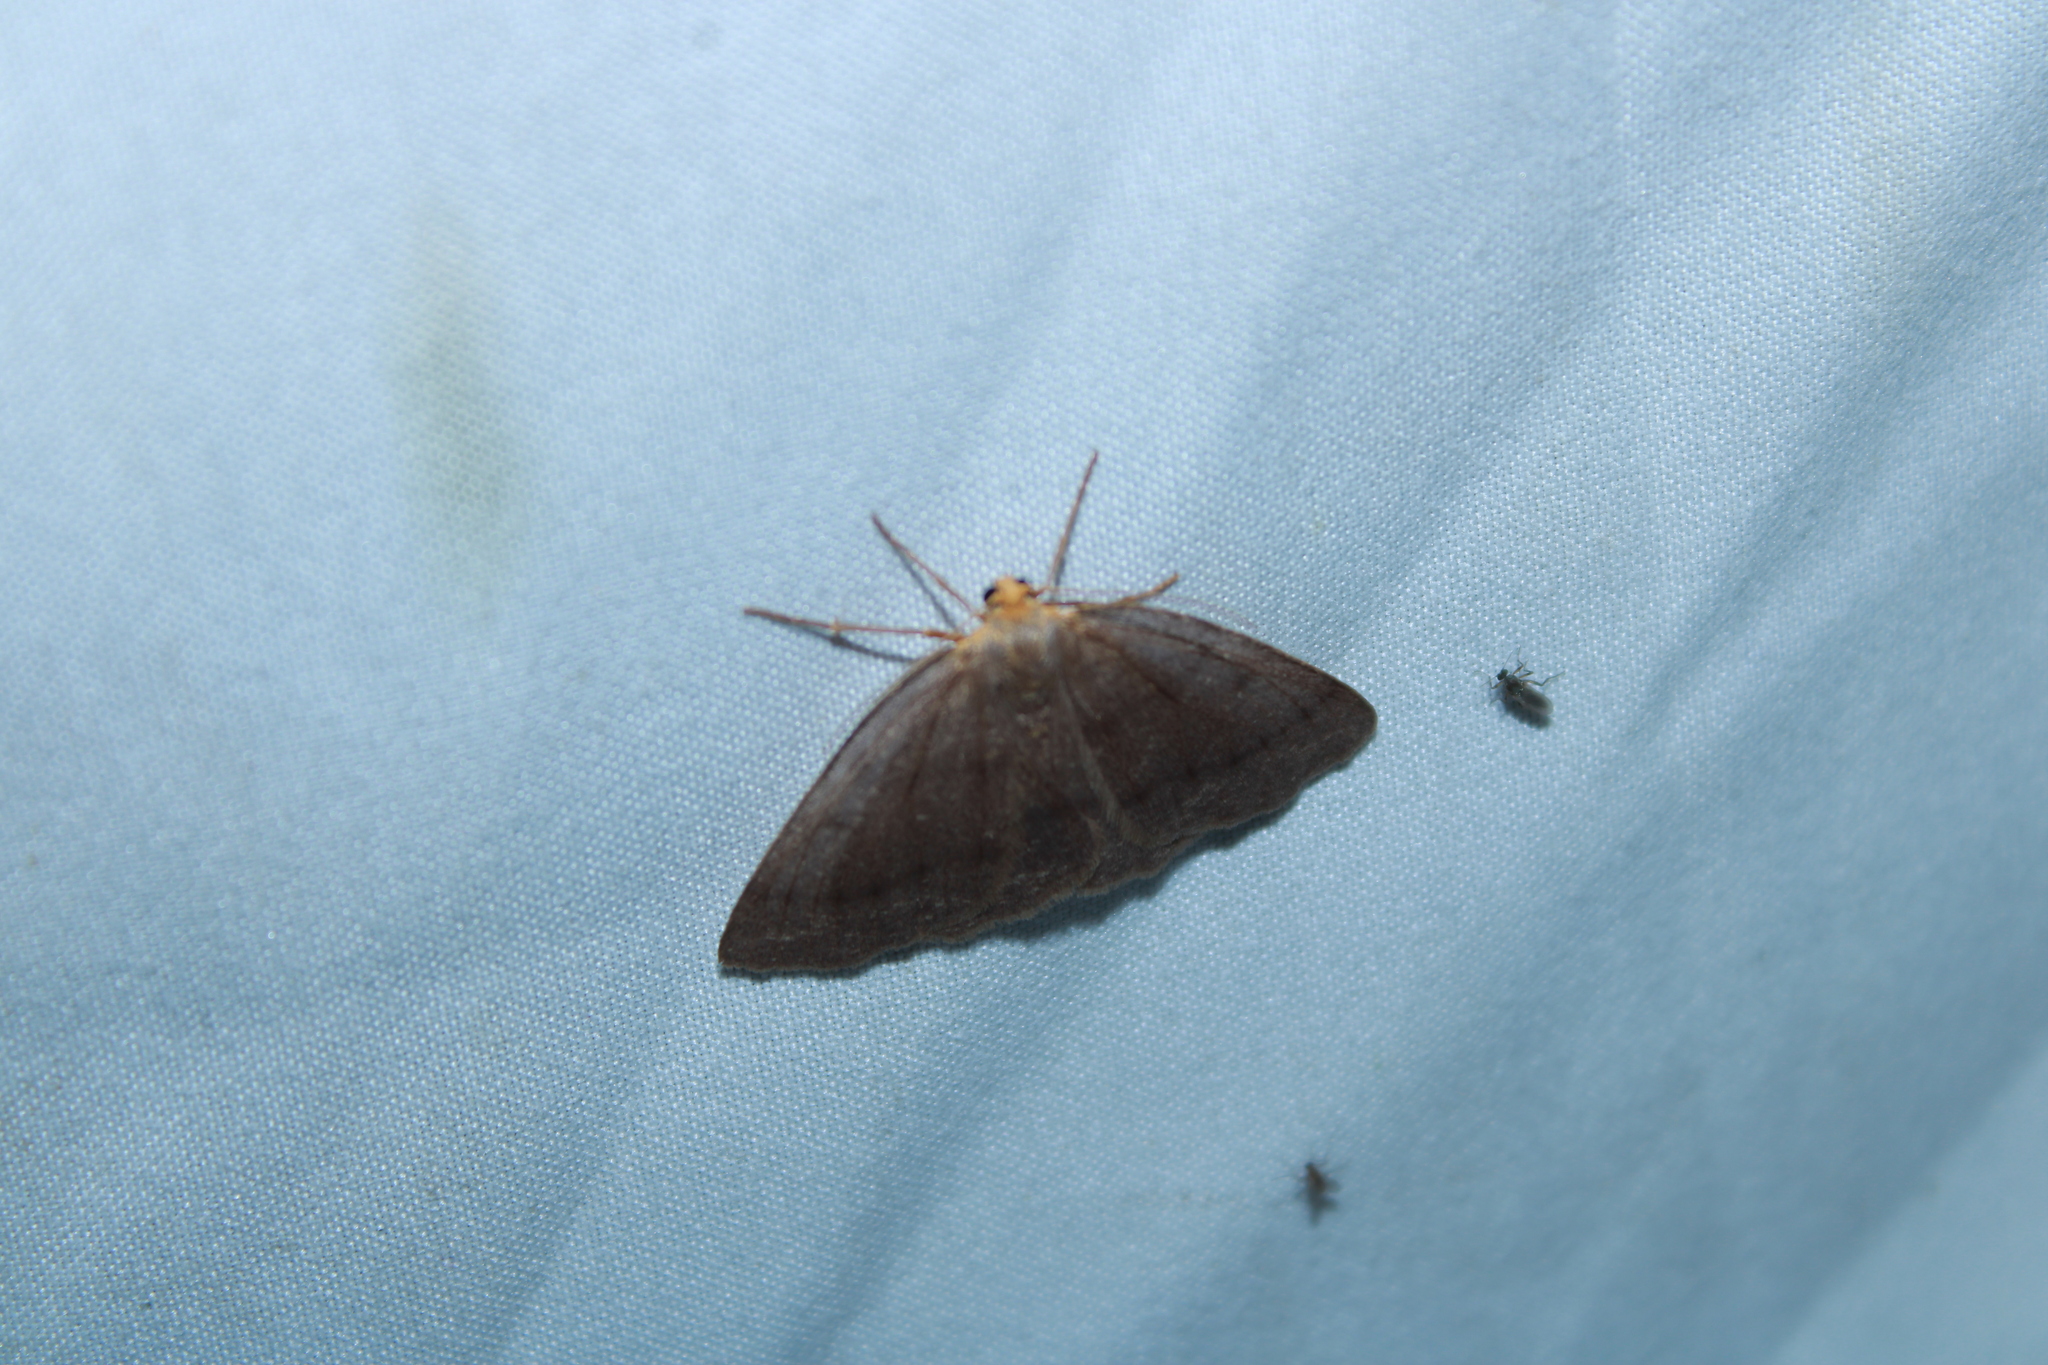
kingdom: Animalia
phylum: Arthropoda
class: Insecta
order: Lepidoptera
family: Geometridae
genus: Lambdina
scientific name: Lambdina pellucidaria
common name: Eastern pinelooper
